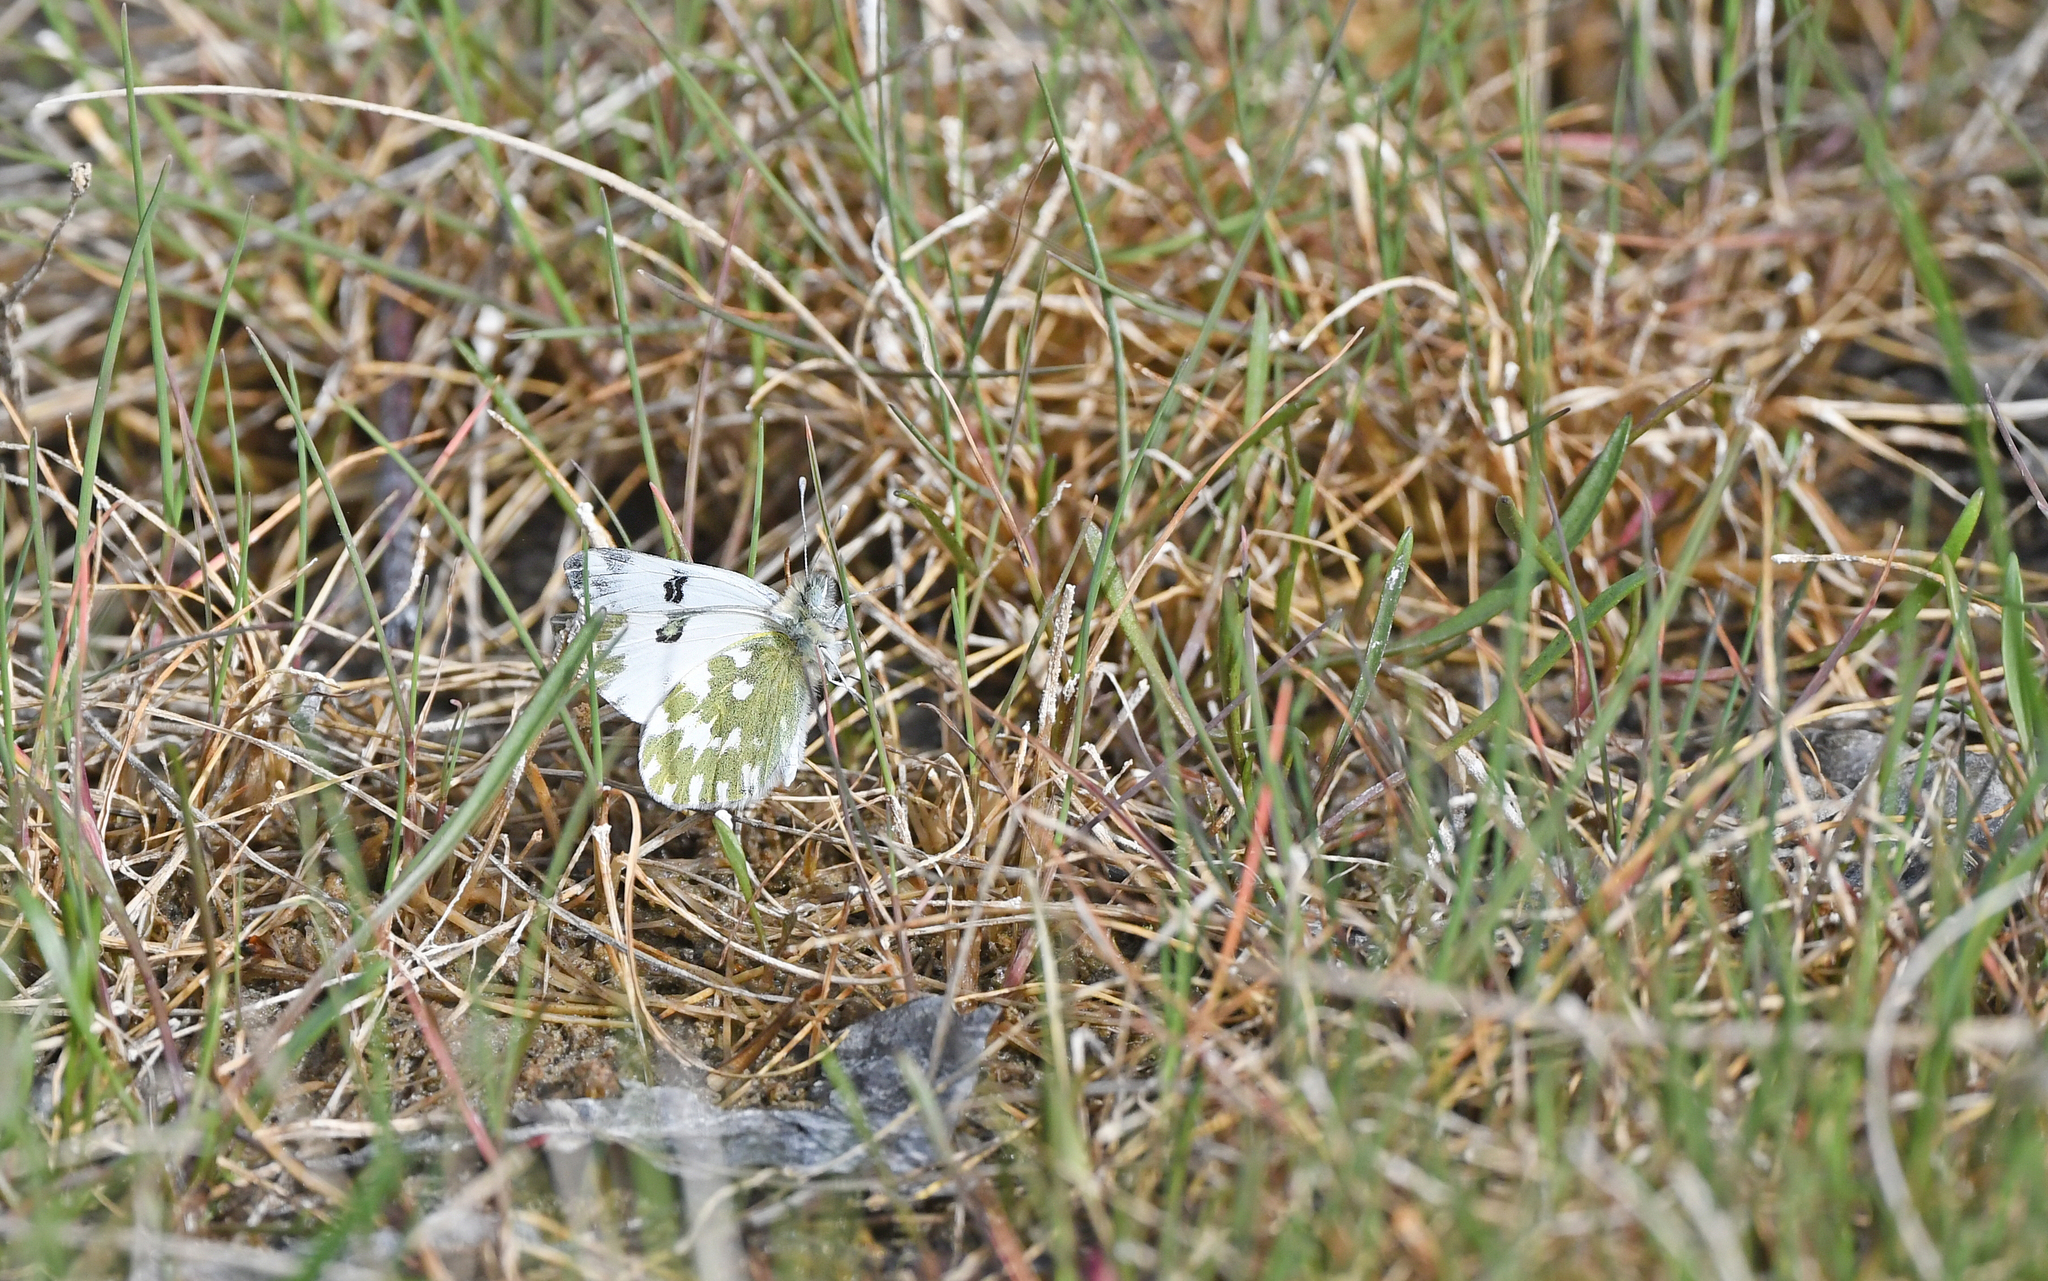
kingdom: Animalia
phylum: Arthropoda
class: Insecta
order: Lepidoptera
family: Pieridae
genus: Pontia
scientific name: Pontia edusa
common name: Eastern bath white
